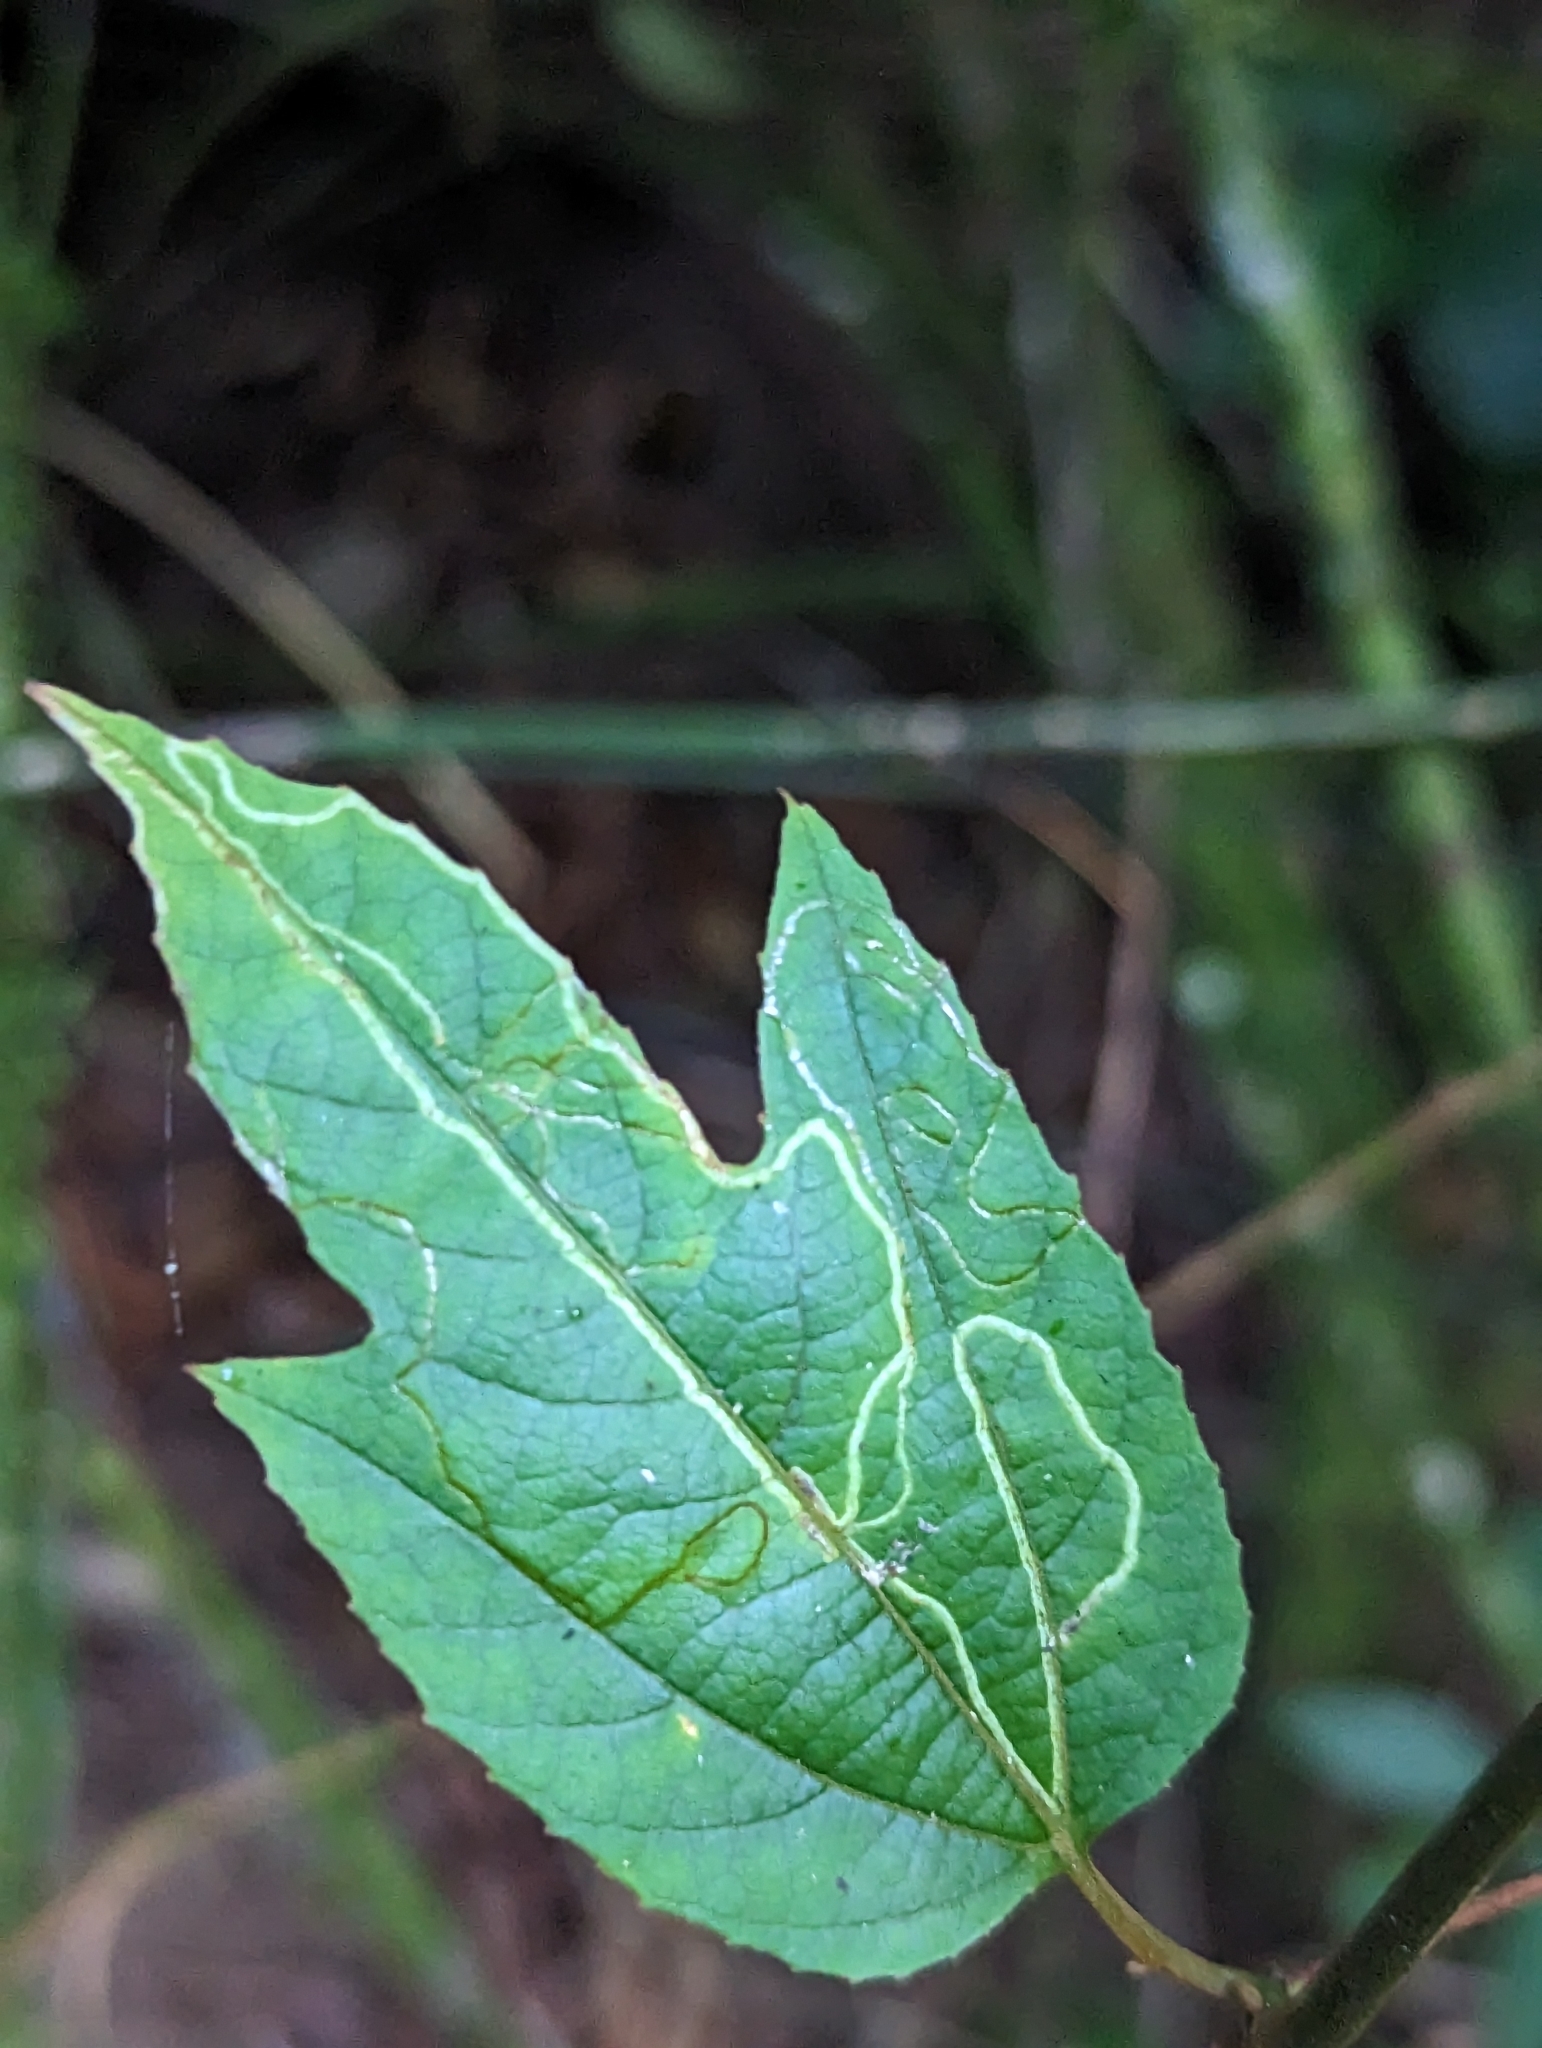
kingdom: Plantae
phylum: Tracheophyta
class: Magnoliopsida
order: Malpighiales
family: Passifloraceae
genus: Passiflora
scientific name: Passiflora vitifolia
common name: Perfumed passionflower
